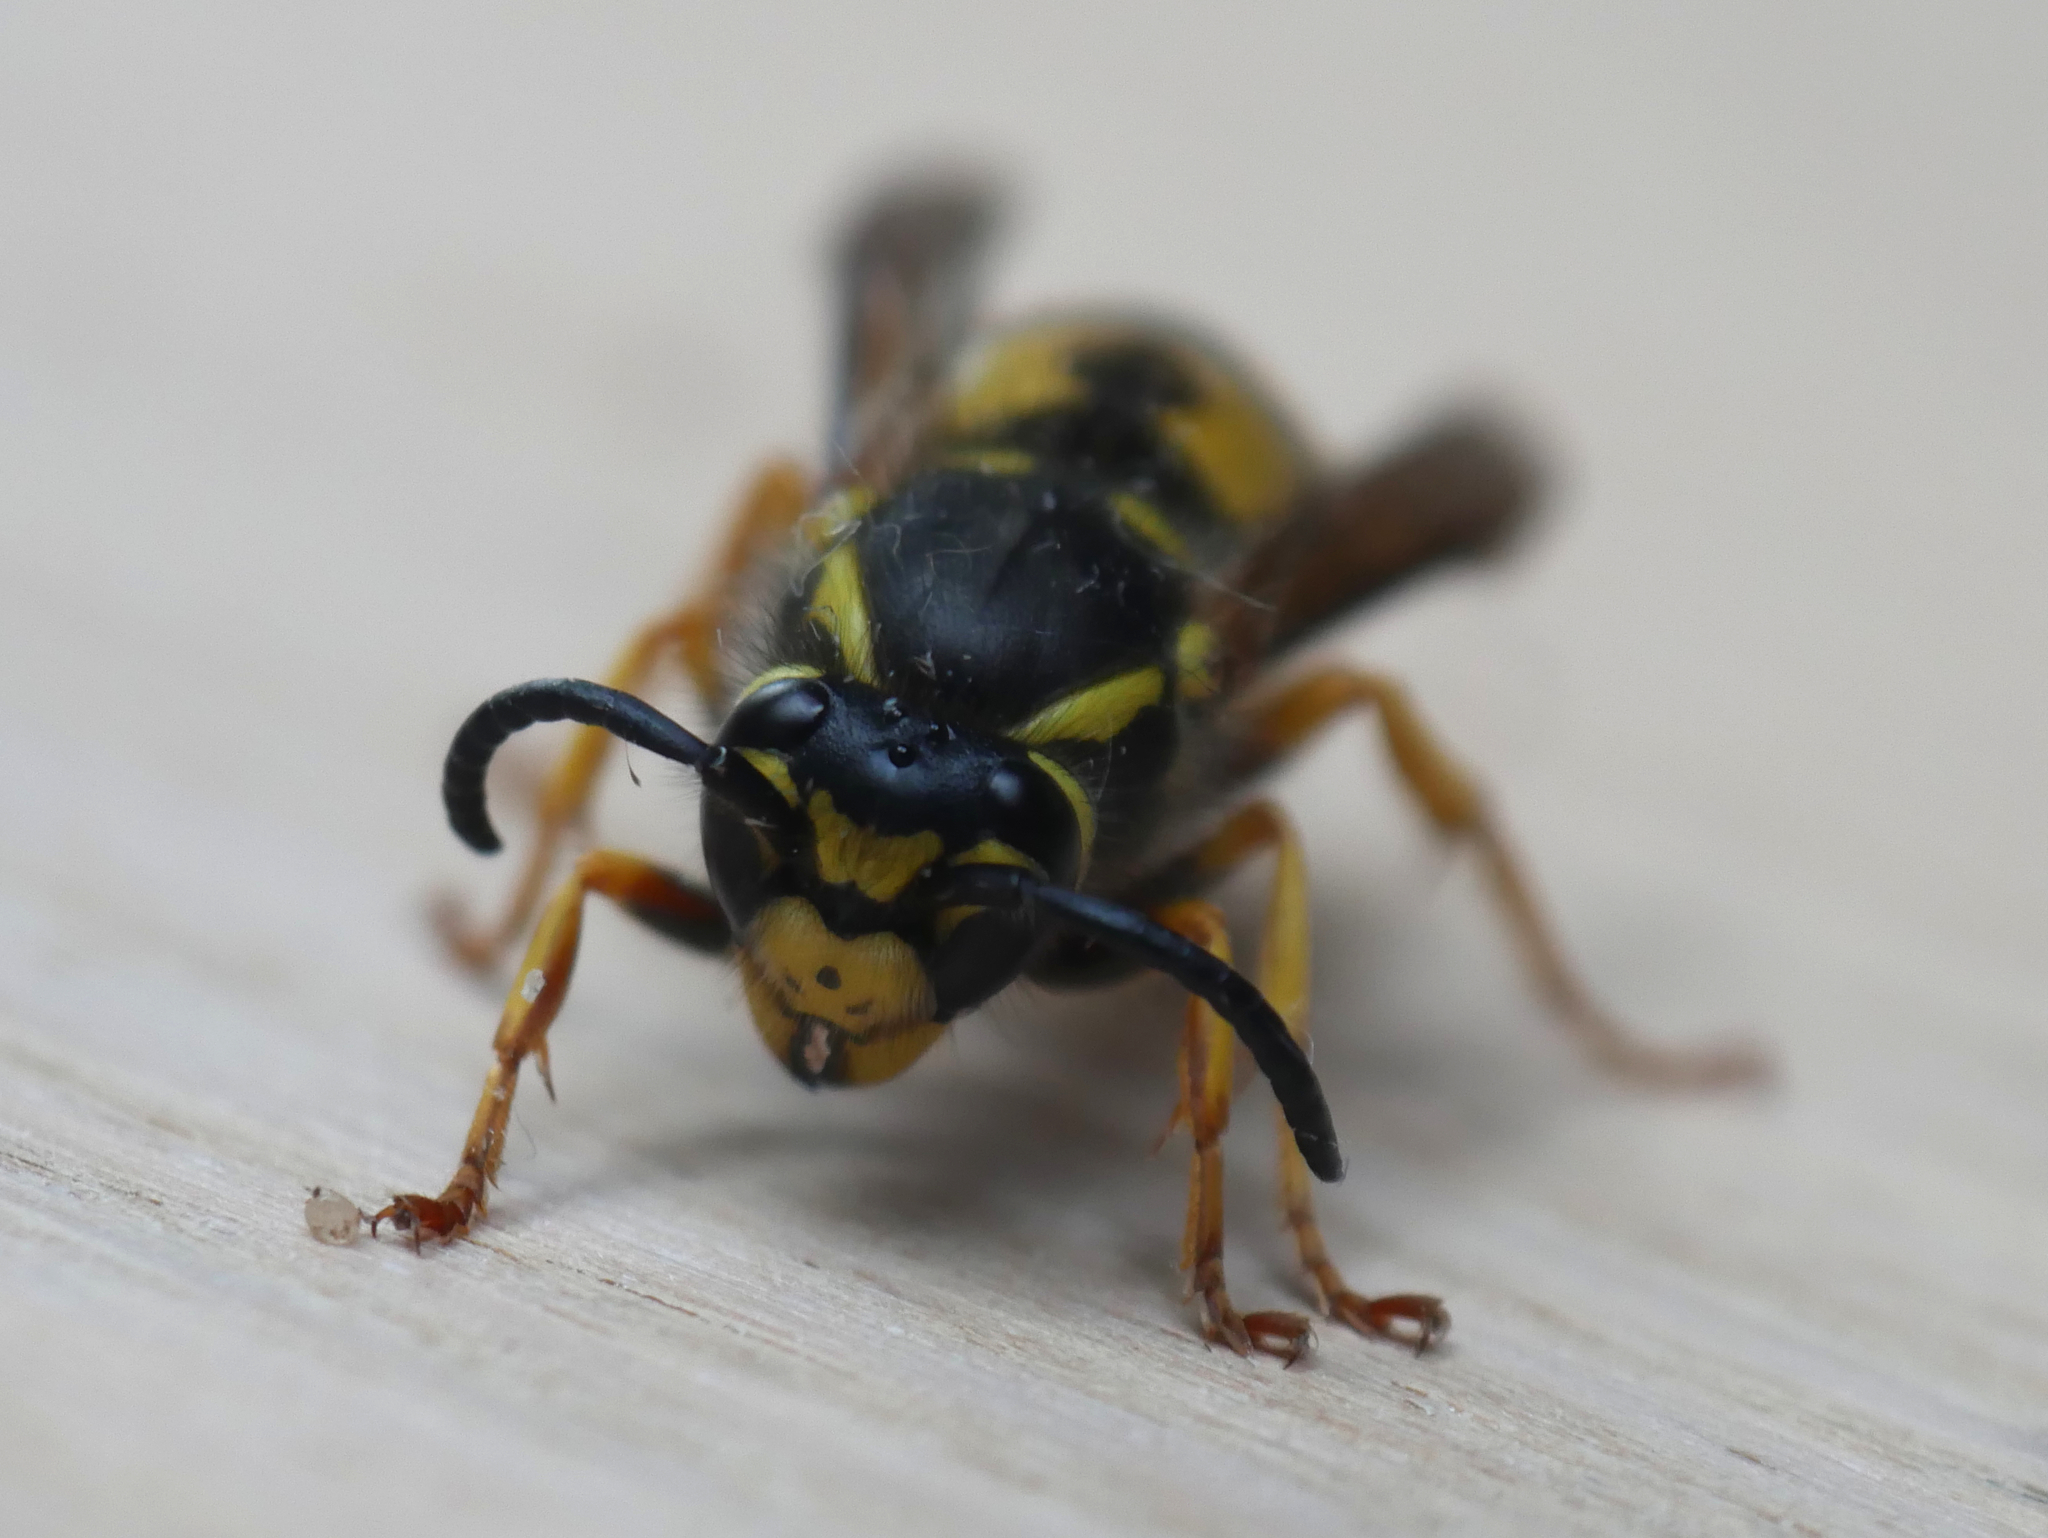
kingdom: Animalia
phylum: Arthropoda
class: Insecta
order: Hymenoptera
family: Vespidae
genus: Vespula
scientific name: Vespula germanica
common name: German wasp
